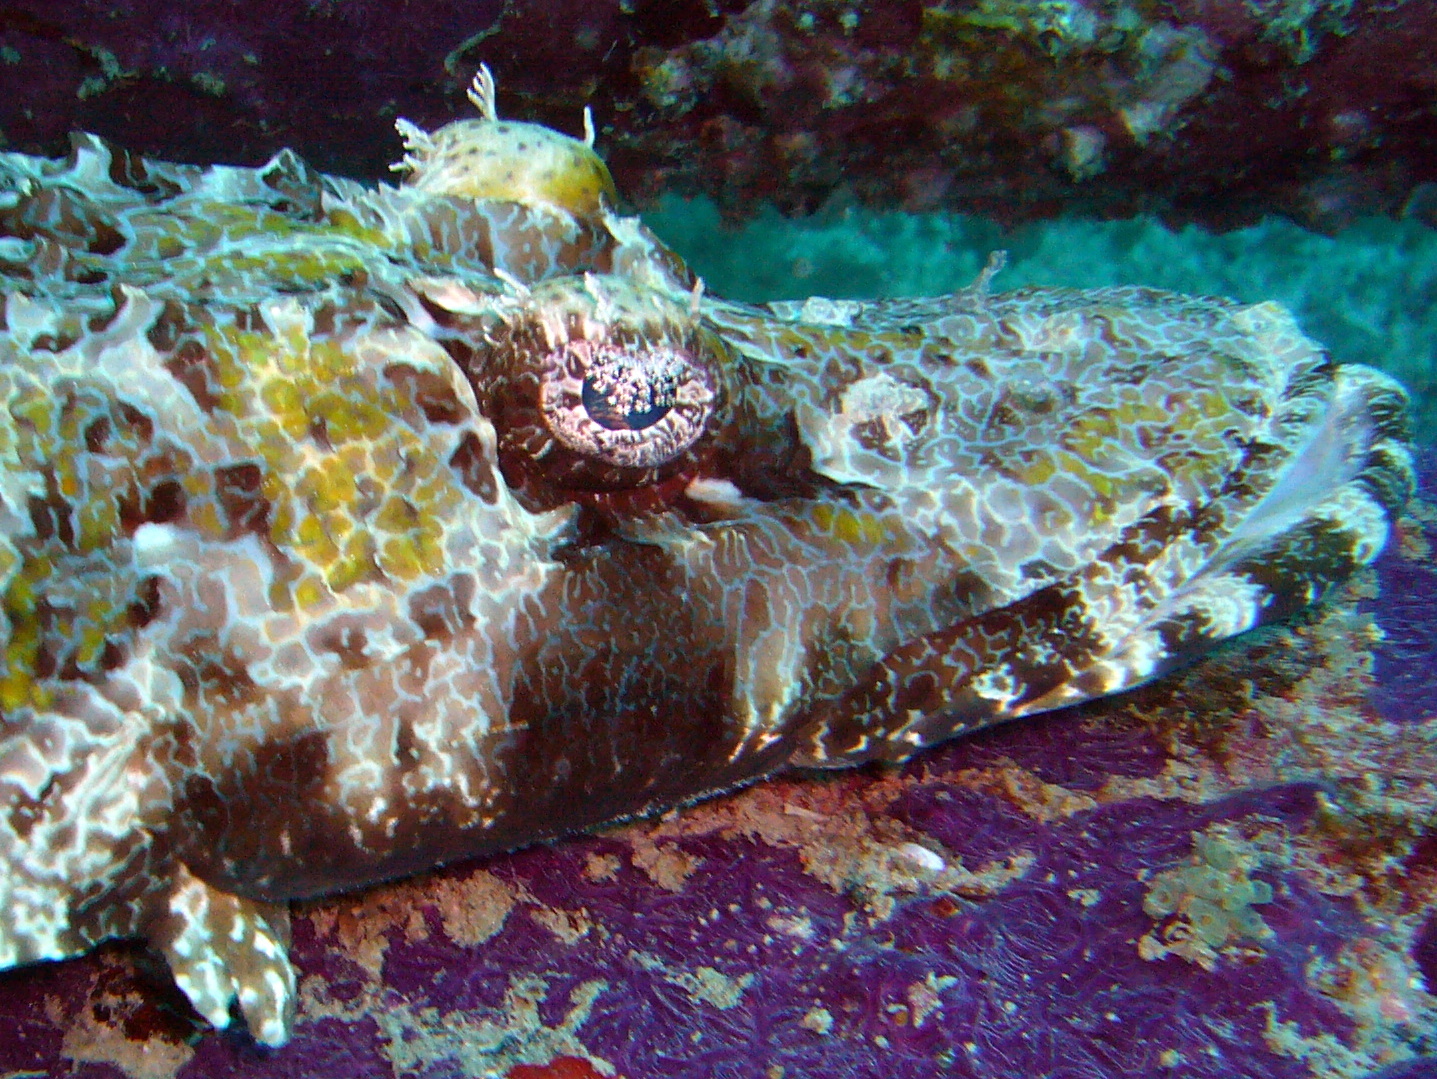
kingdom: Animalia
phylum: Chordata
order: Scorpaeniformes
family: Platycephalidae
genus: Cymbacephalus
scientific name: Cymbacephalus beauforti
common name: Crocodile fish
